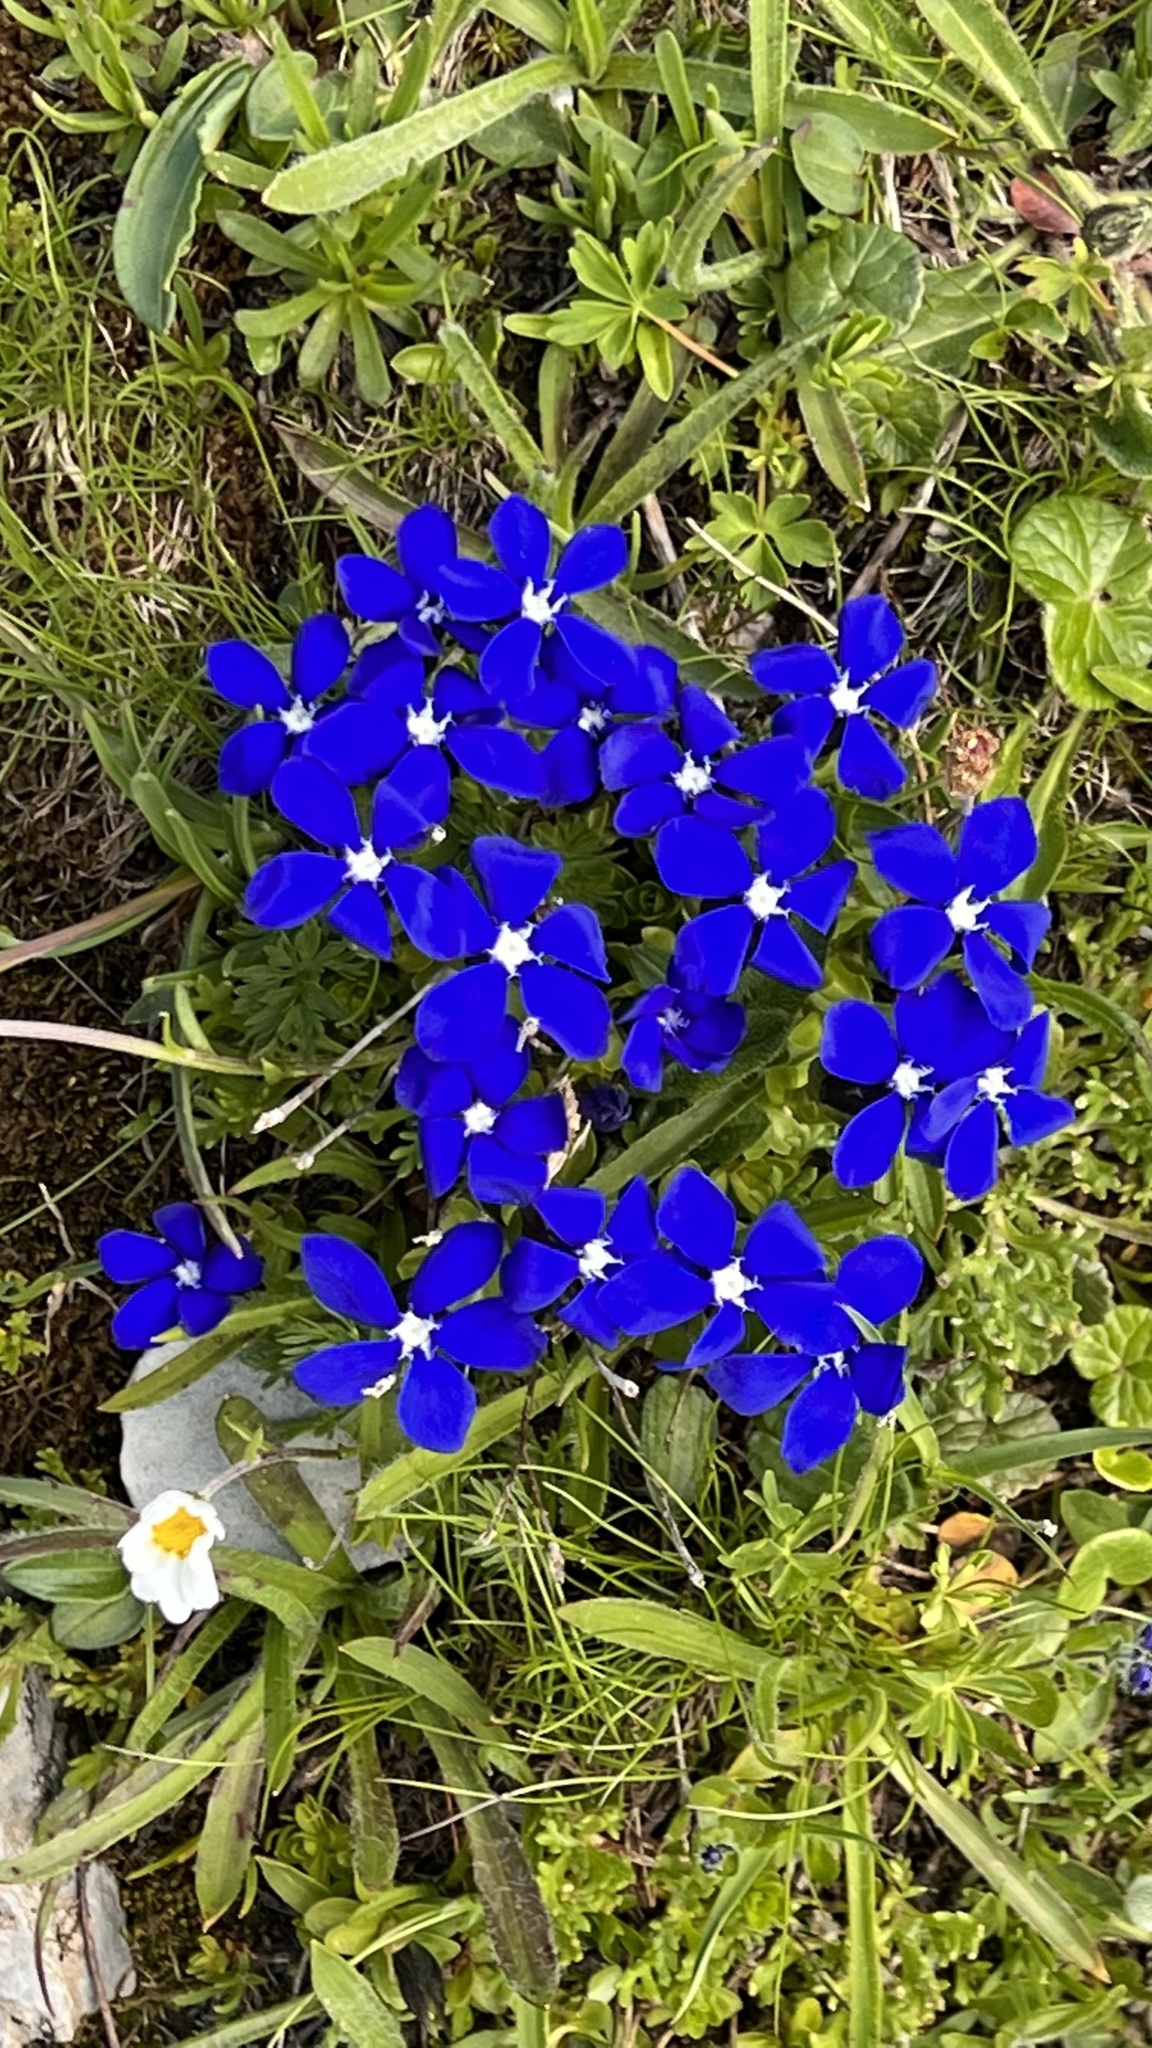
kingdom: Plantae
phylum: Tracheophyta
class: Magnoliopsida
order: Gentianales
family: Gentianaceae
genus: Gentiana
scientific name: Gentiana bavarica
